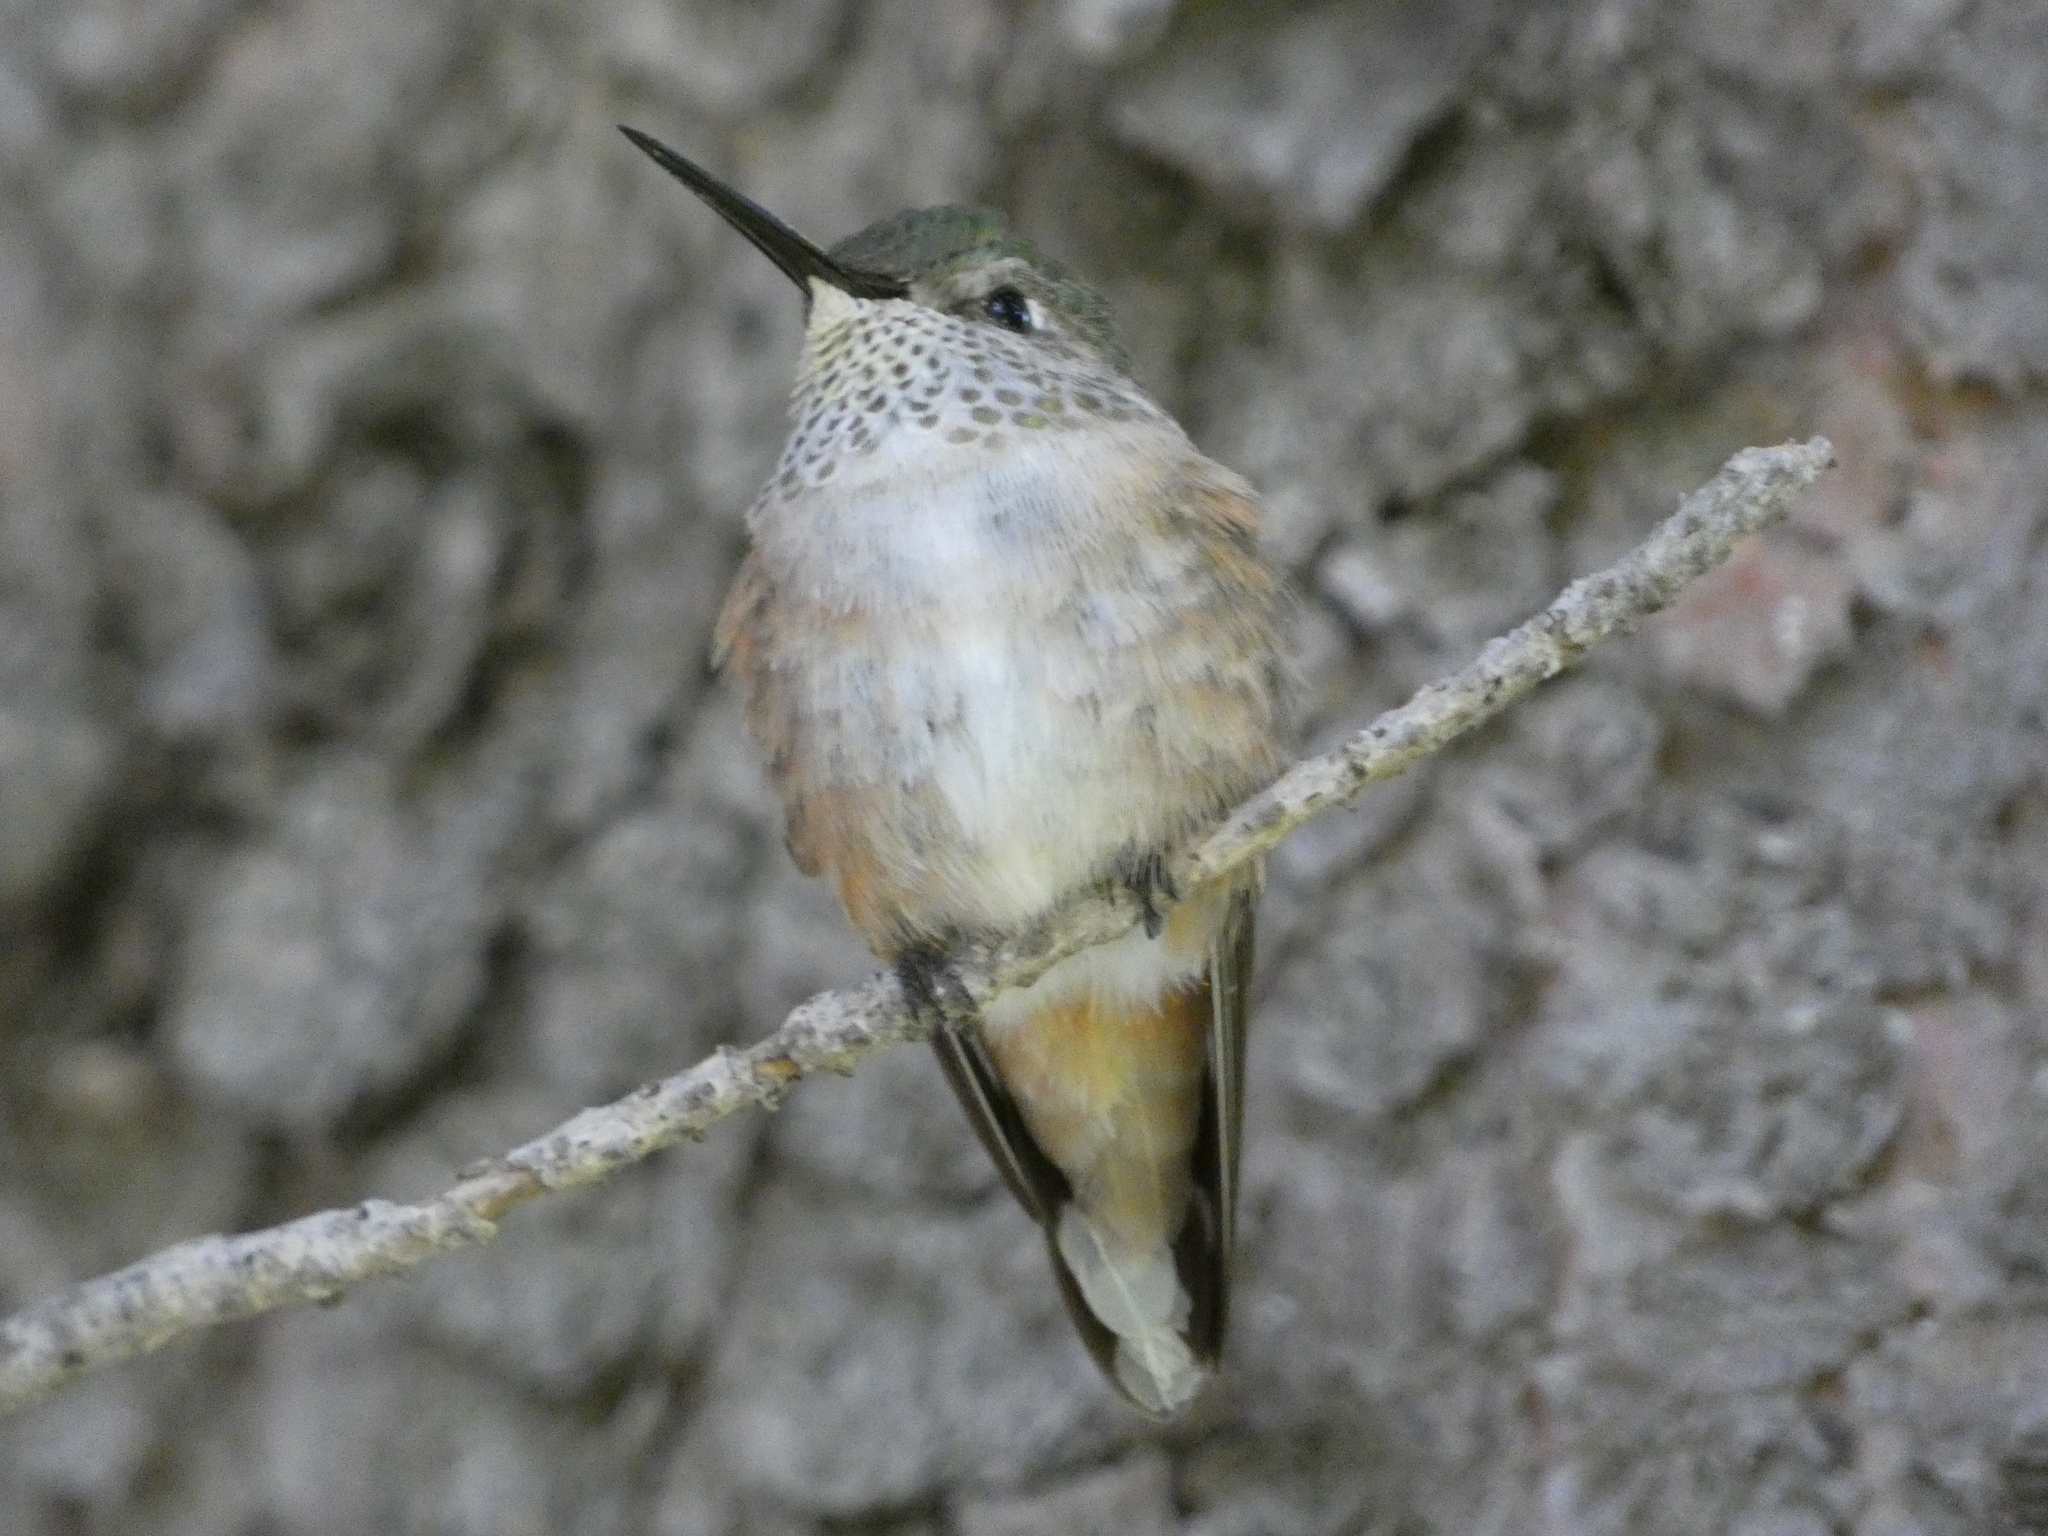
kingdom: Animalia
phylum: Chordata
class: Aves
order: Apodiformes
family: Trochilidae
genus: Selasphorus
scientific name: Selasphorus platycercus
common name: Broad-tailed hummingbird
